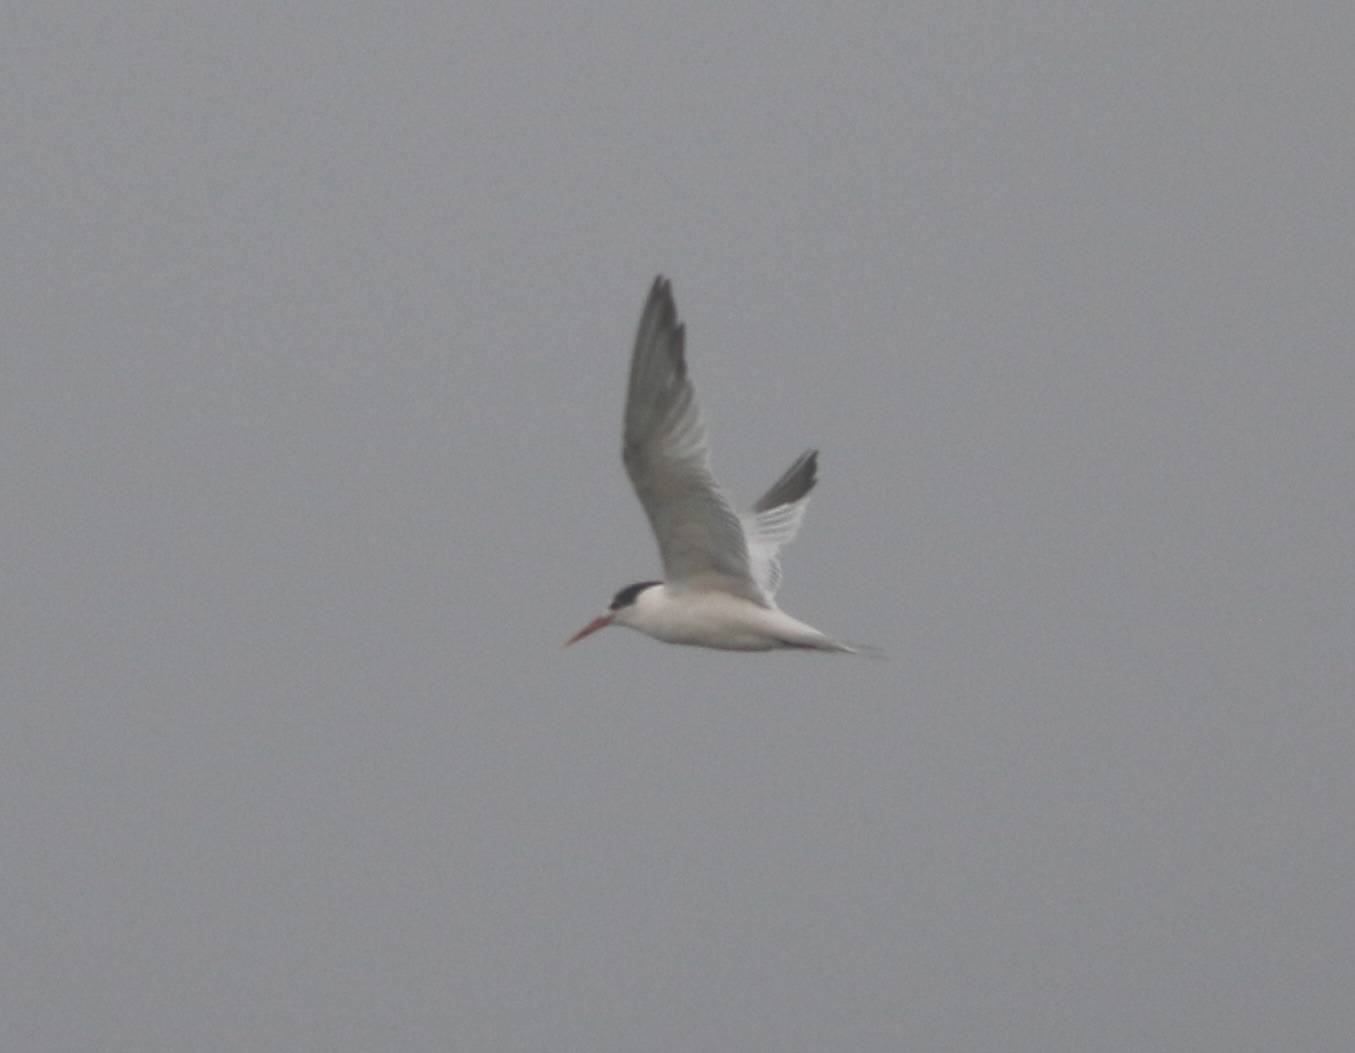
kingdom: Animalia
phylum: Chordata
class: Aves
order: Charadriiformes
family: Laridae
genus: Thalasseus
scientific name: Thalasseus elegans
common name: Elegant tern
